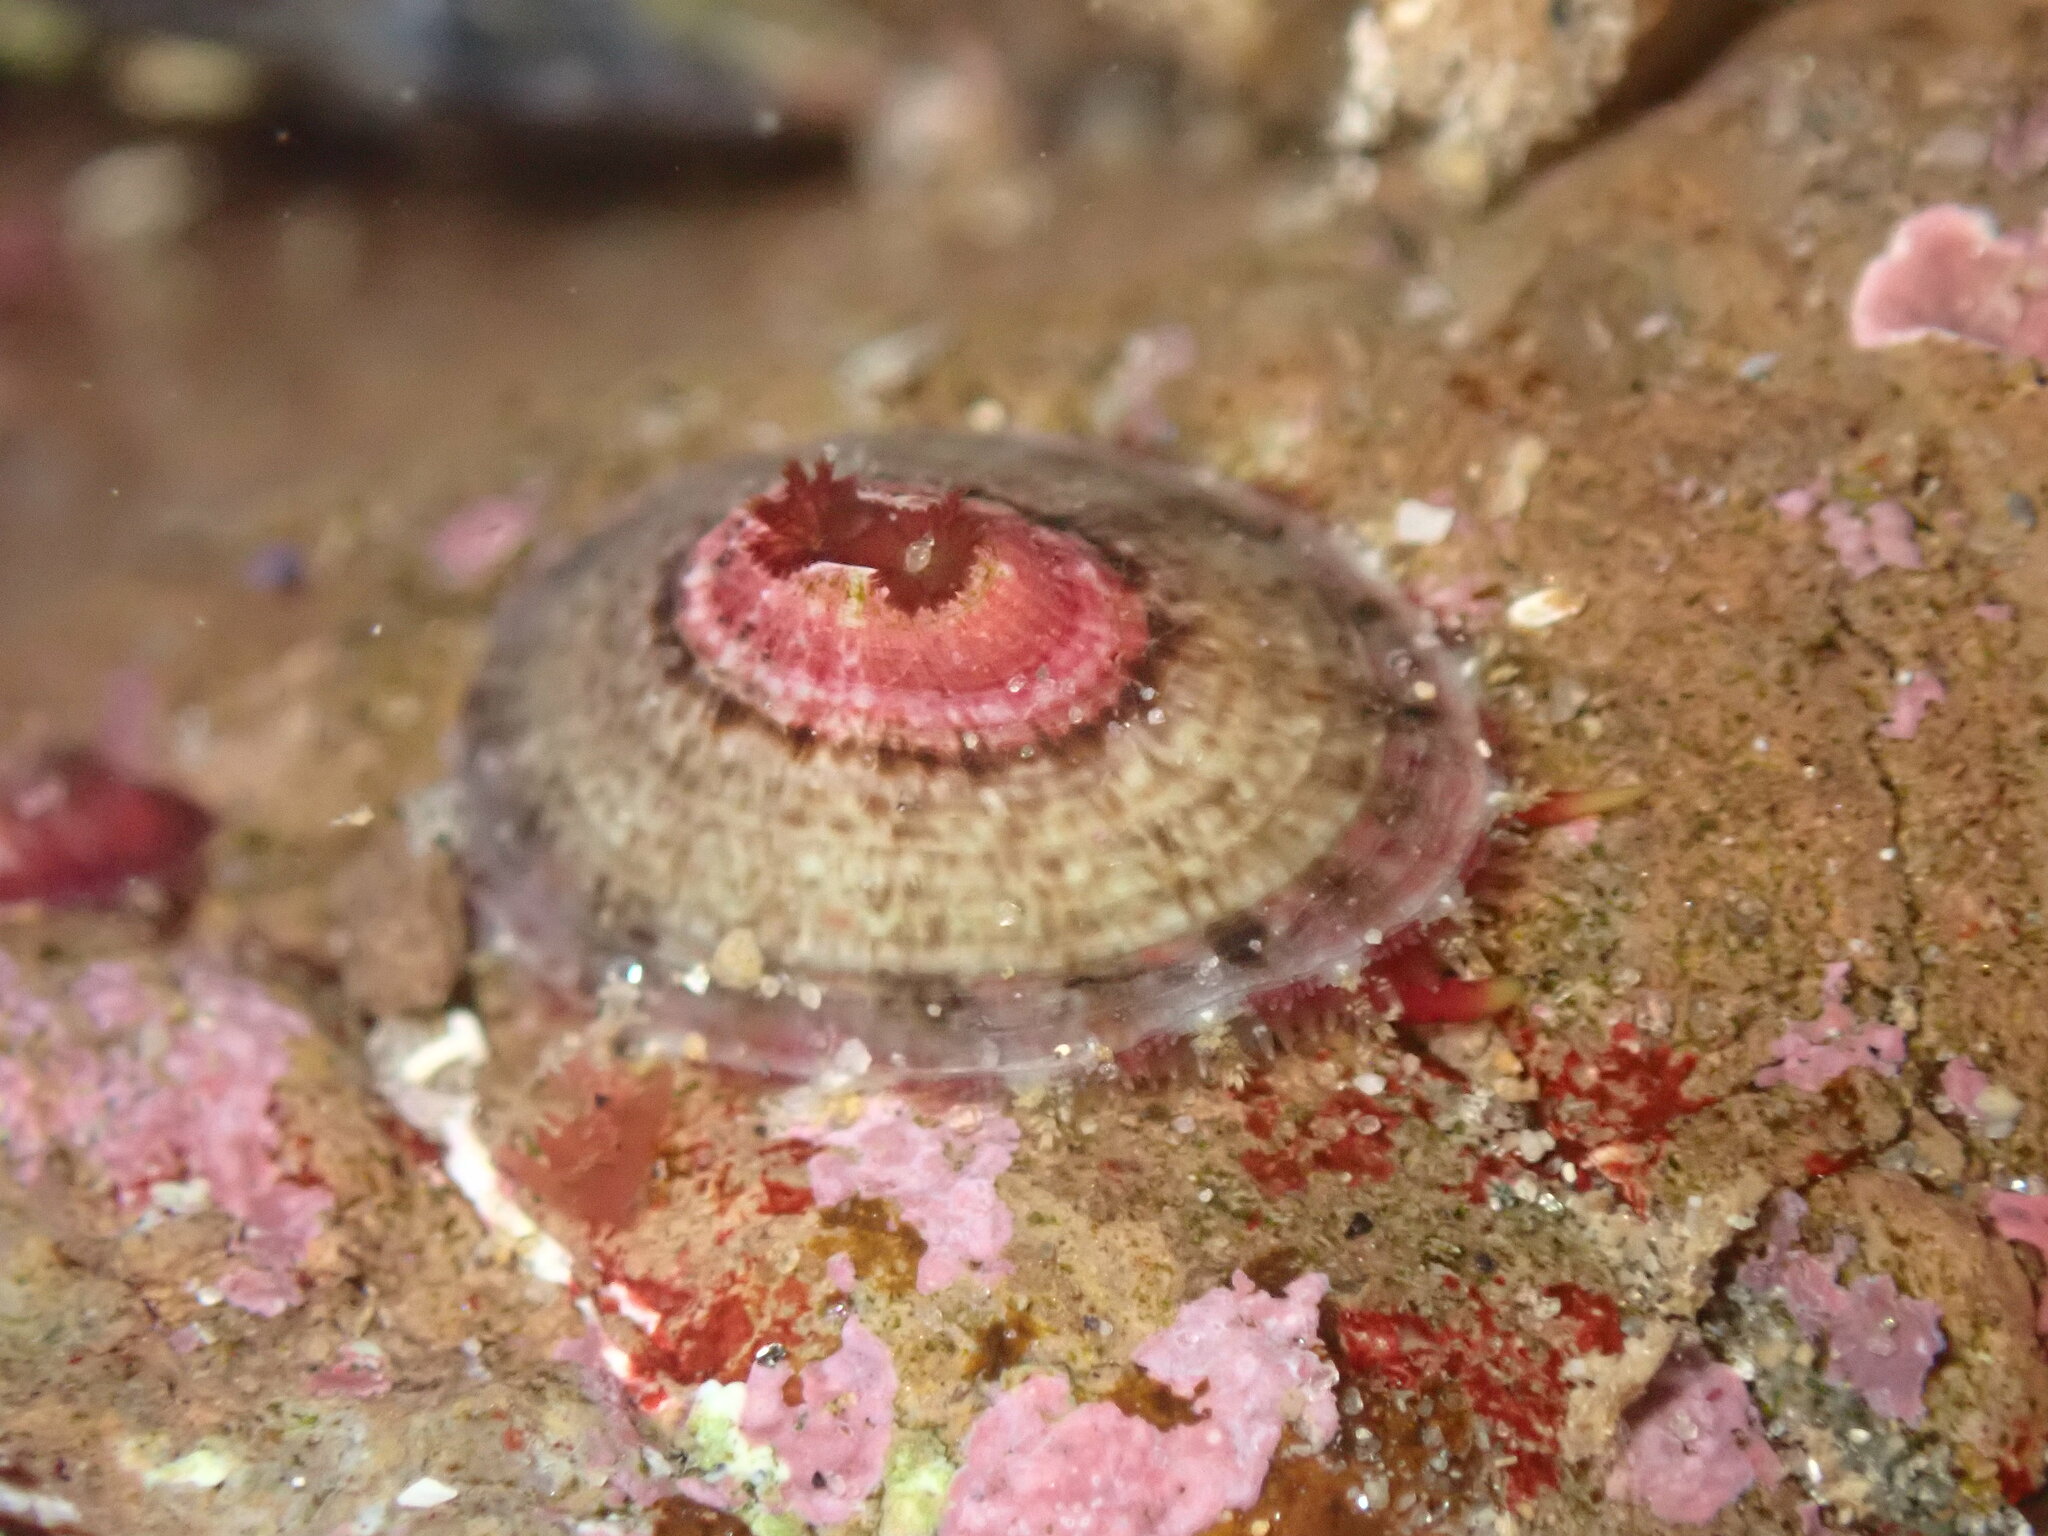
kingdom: Animalia
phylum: Mollusca
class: Gastropoda
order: Lepetellida
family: Fissurellidae
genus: Fissurella
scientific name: Fissurella volcano
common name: Volcano keyhole limpet
